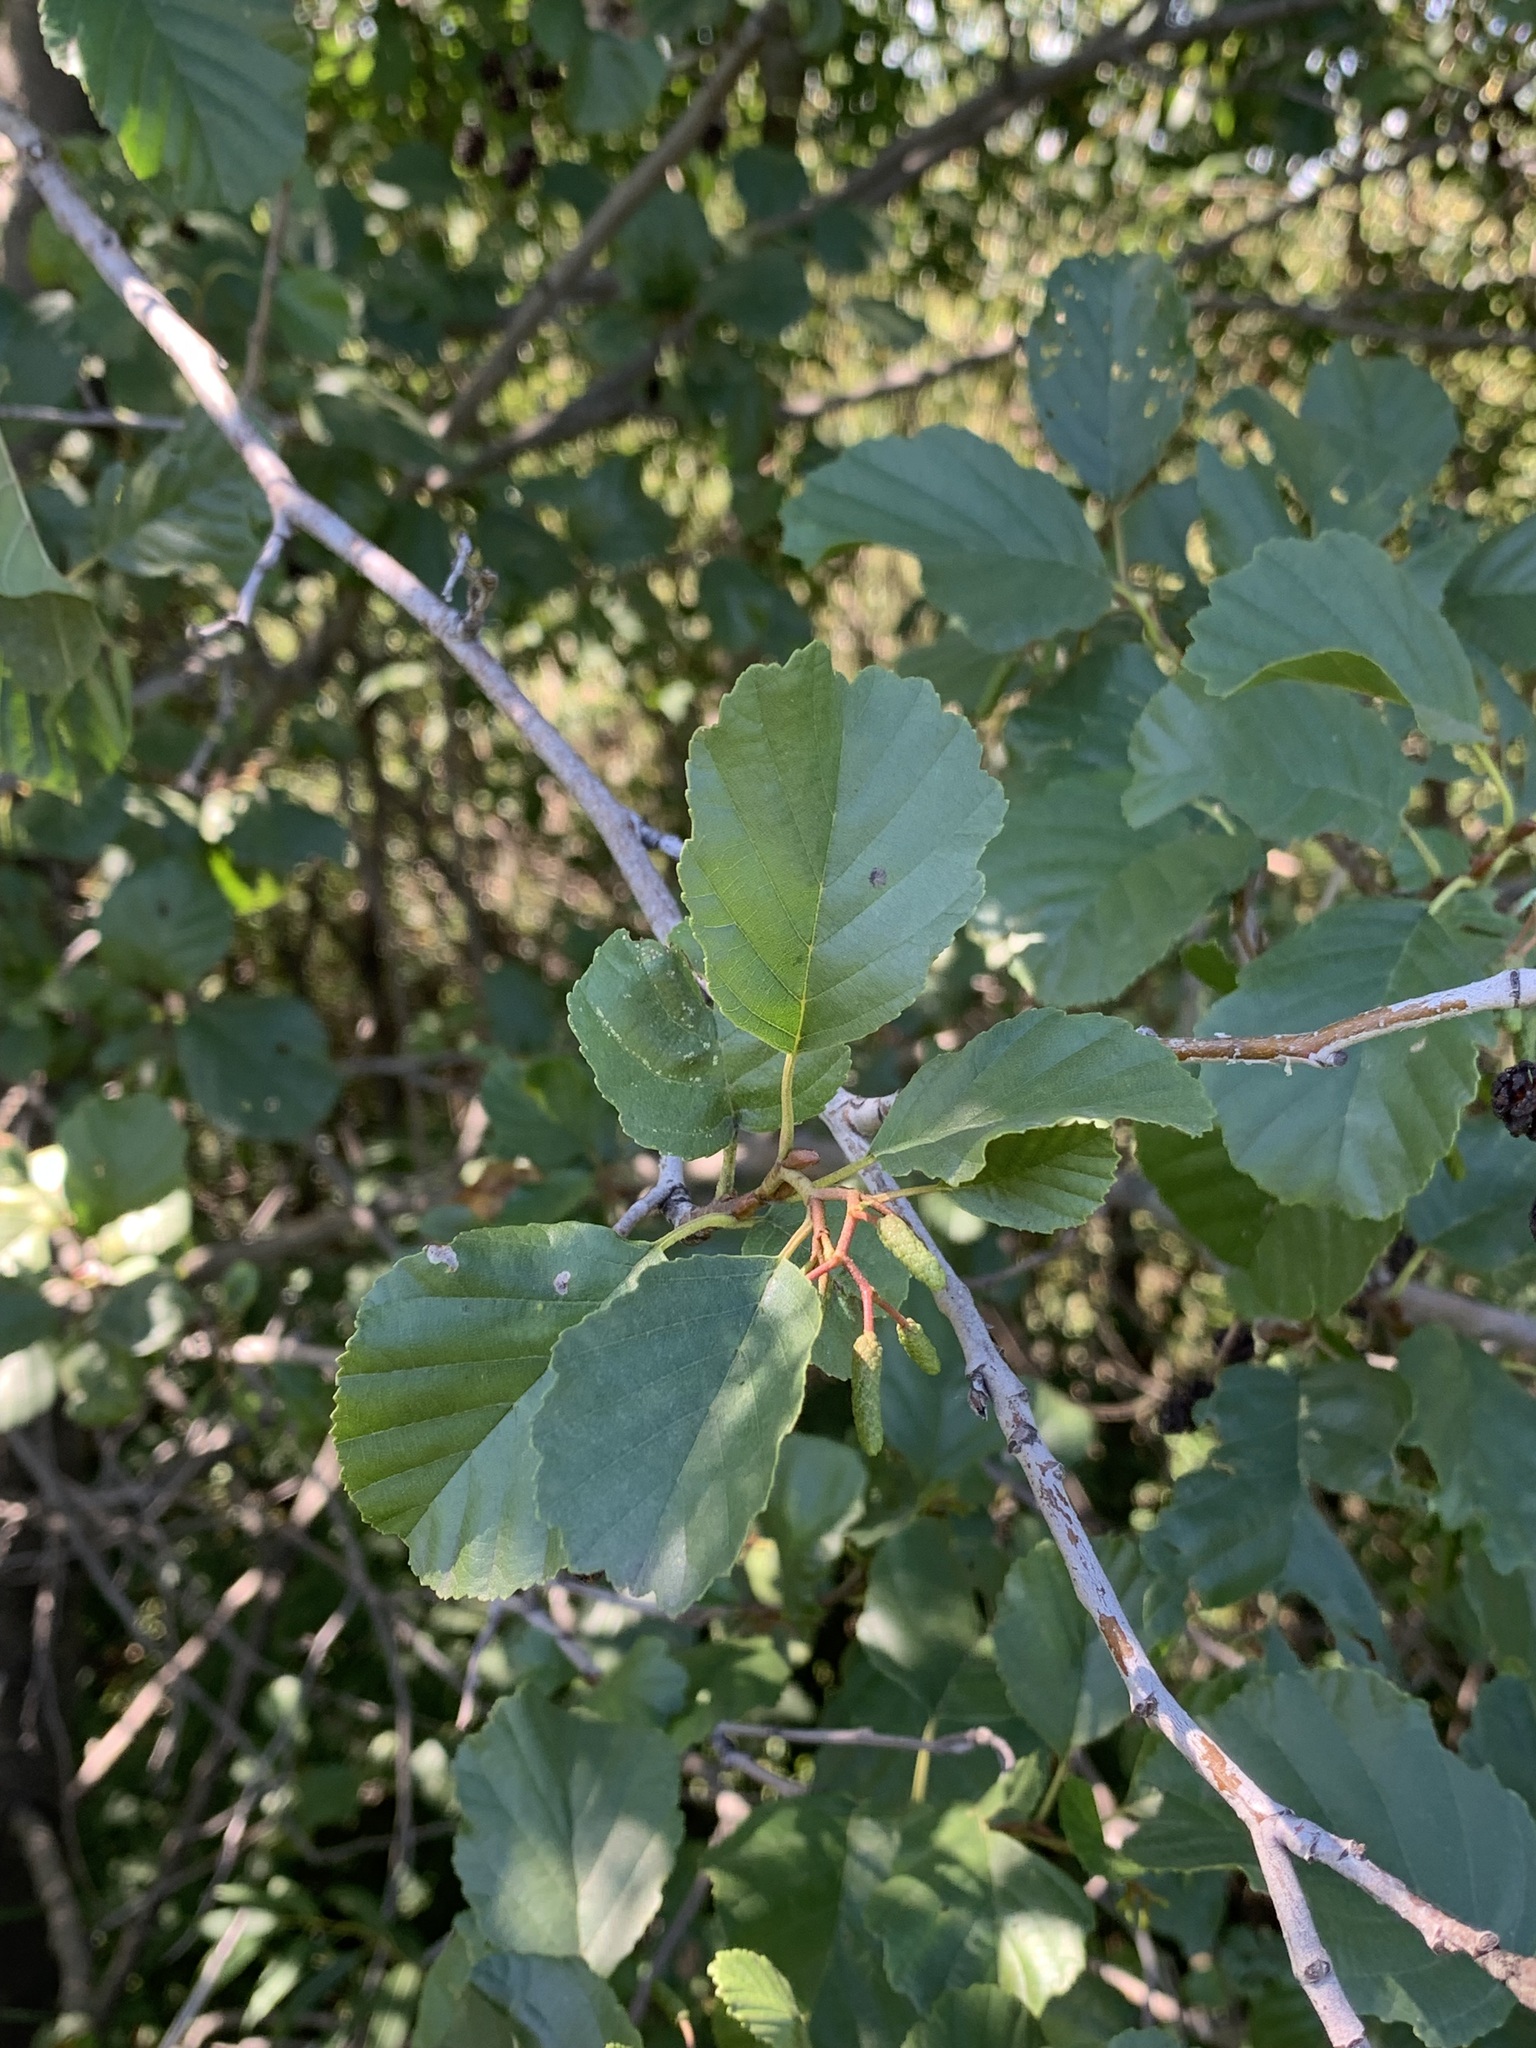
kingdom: Plantae
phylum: Tracheophyta
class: Magnoliopsida
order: Fagales
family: Betulaceae
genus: Alnus
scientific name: Alnus glutinosa
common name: Black alder
